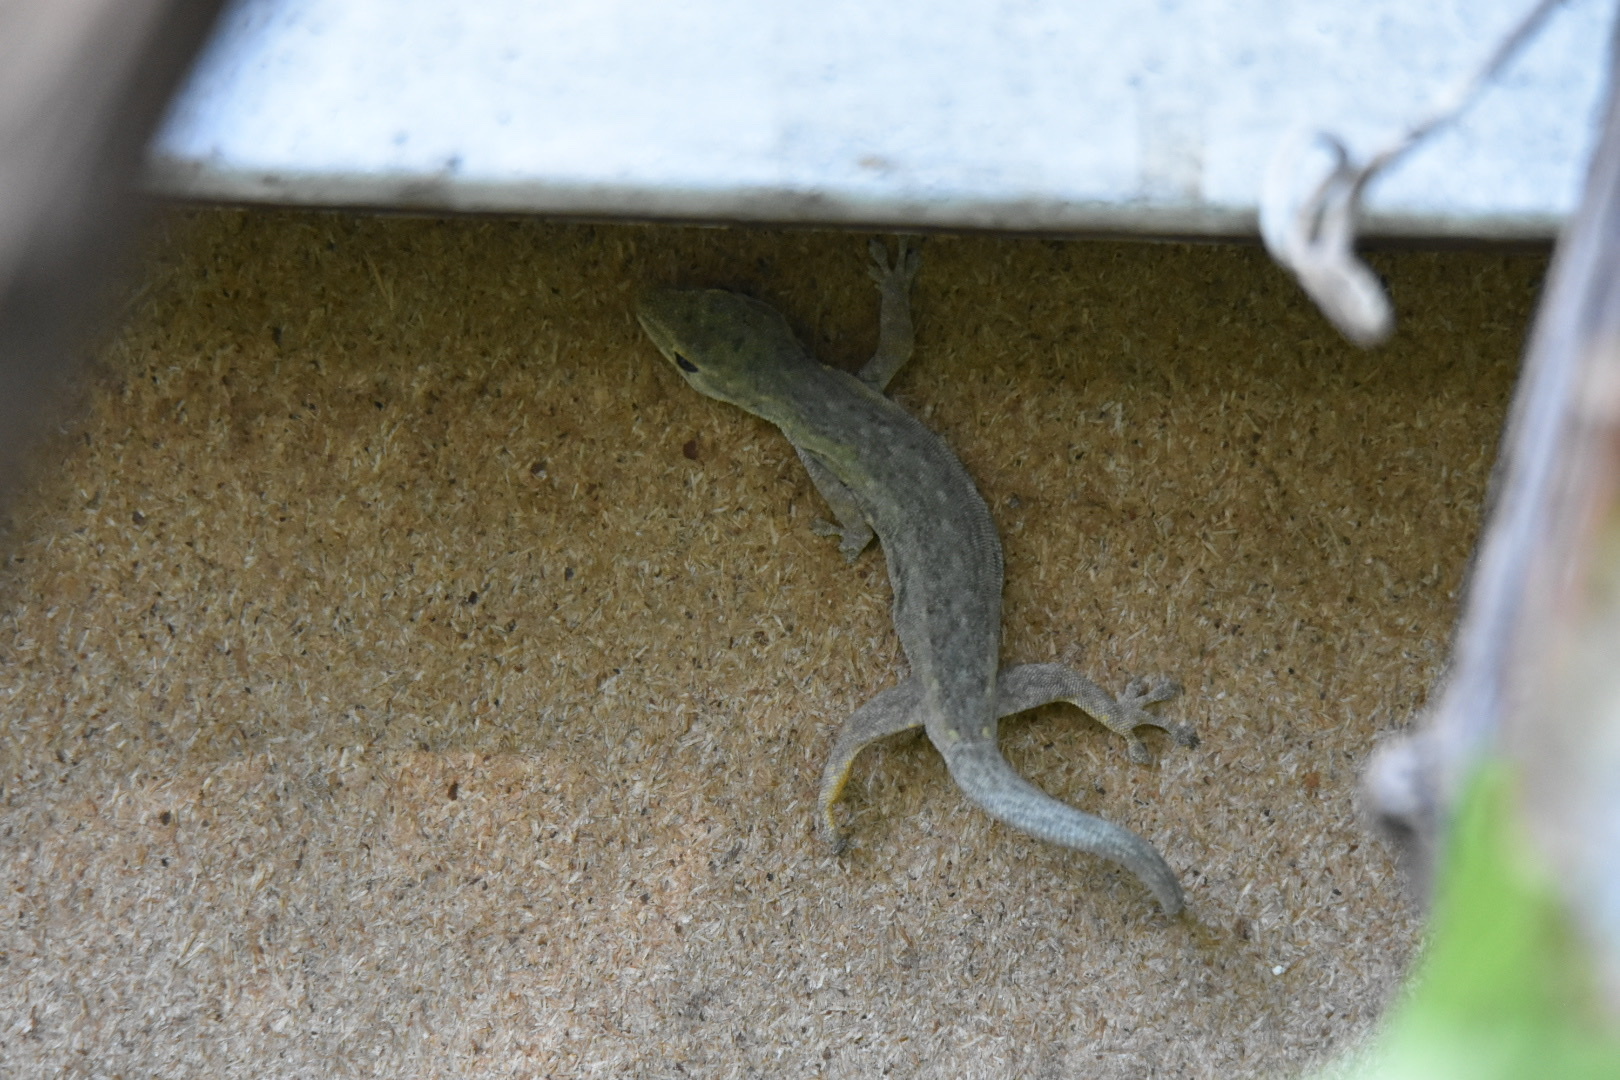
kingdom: Animalia
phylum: Chordata
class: Squamata
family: Gekkonidae
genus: Lygodactylus
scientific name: Lygodactylus chobiensis
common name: Okavango dwarf gecko
